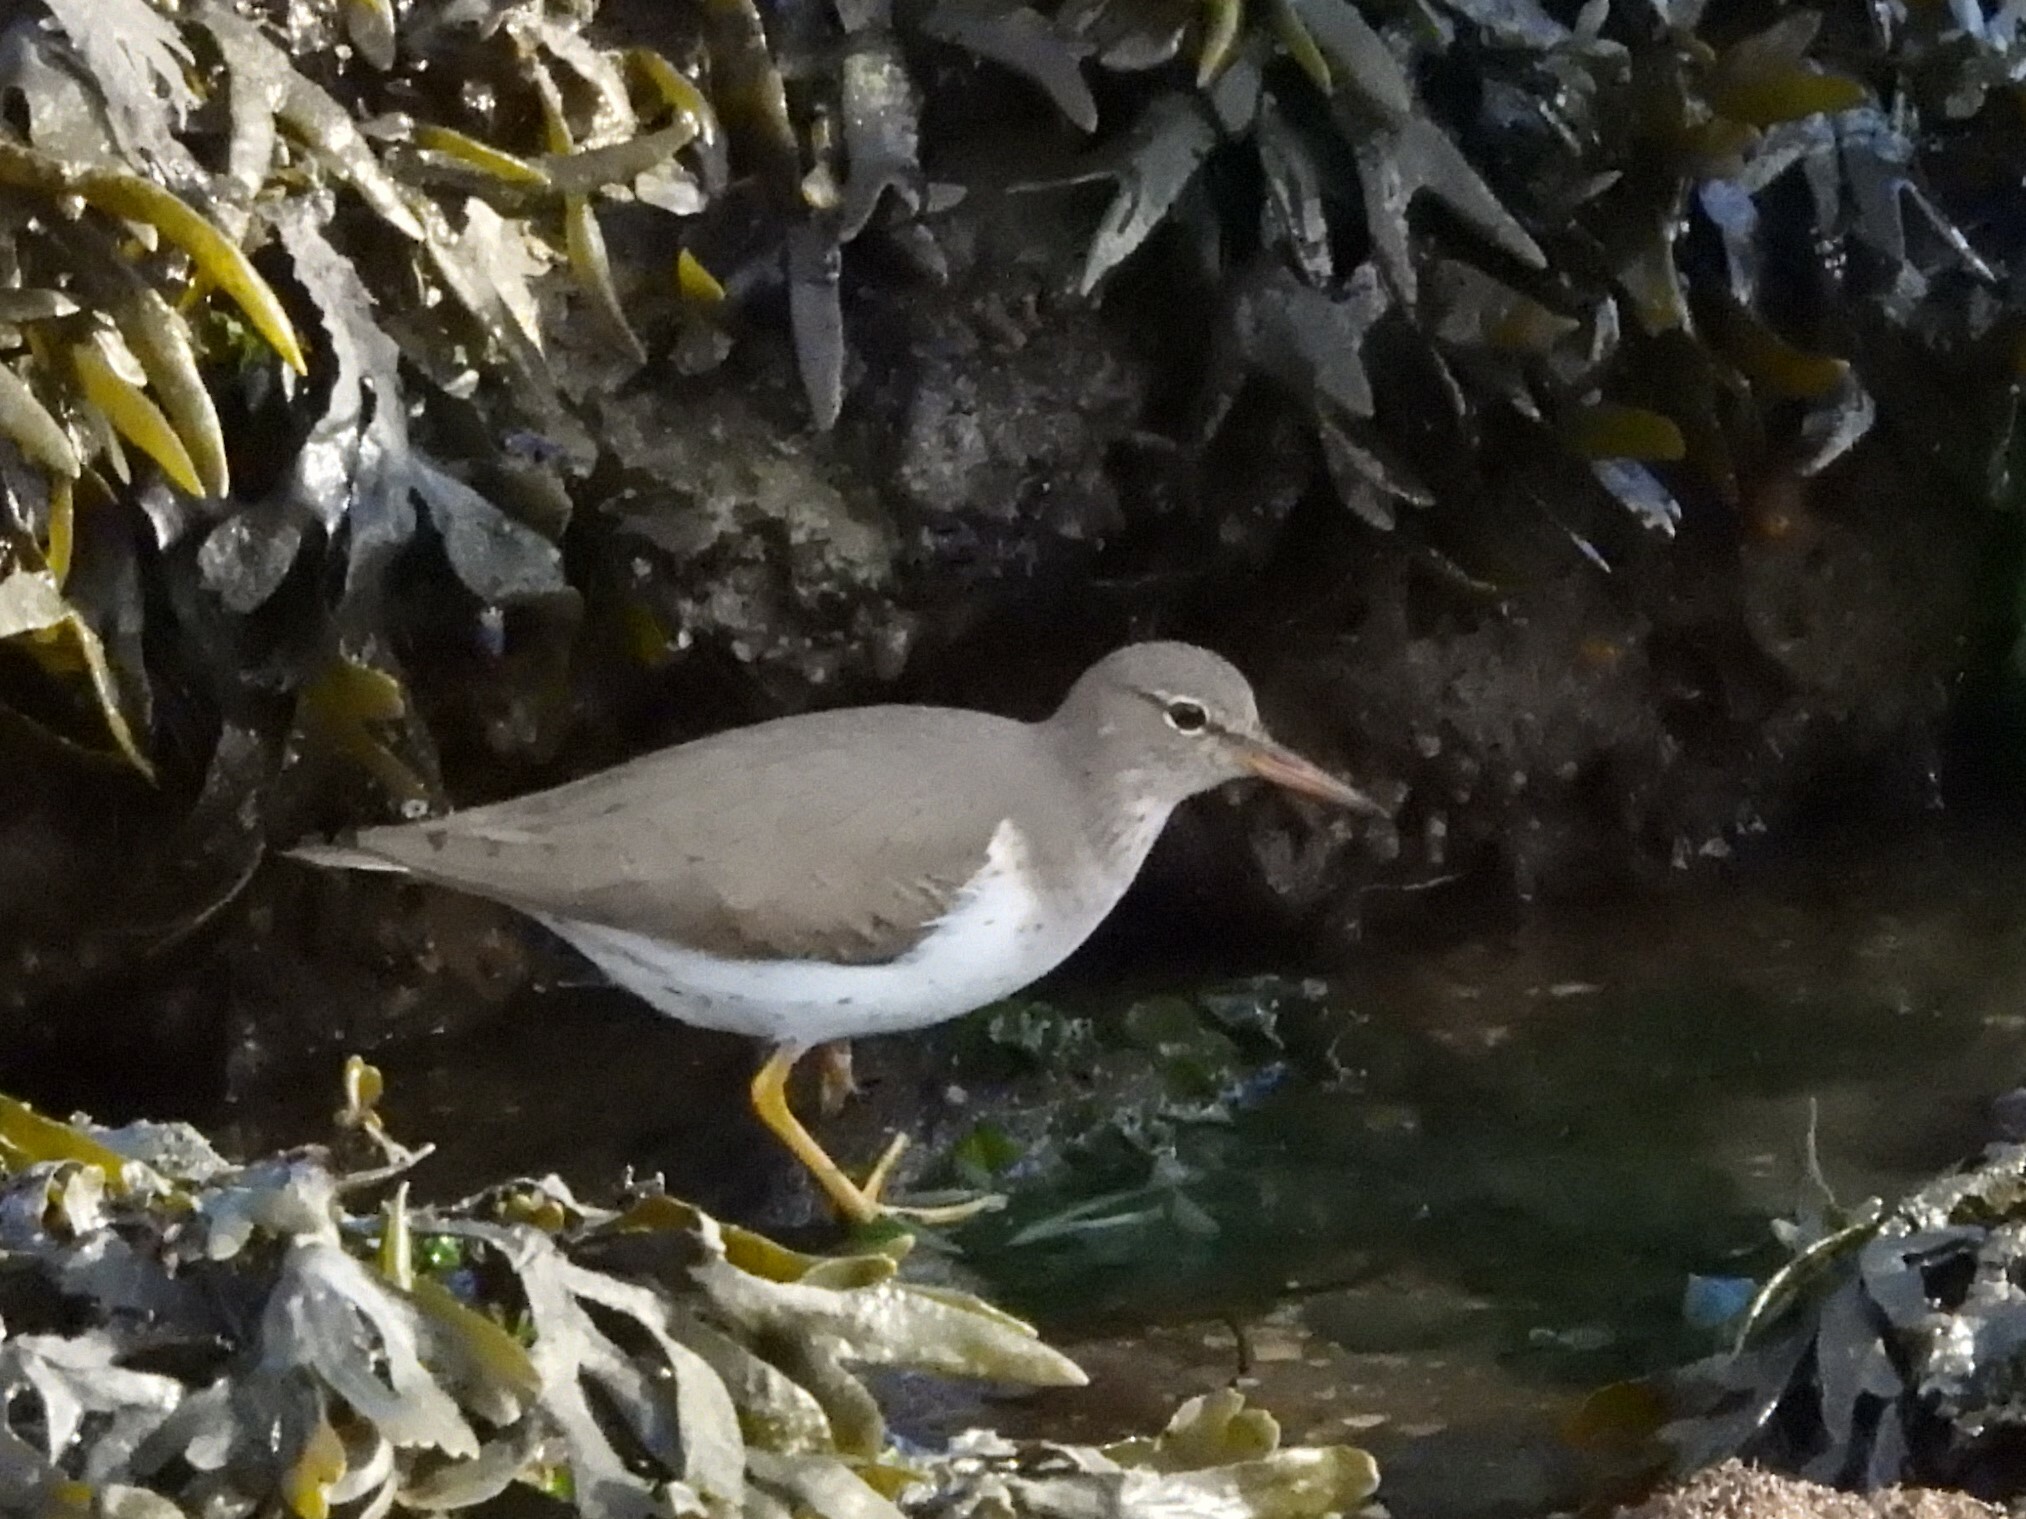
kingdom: Animalia
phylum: Chordata
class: Aves
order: Charadriiformes
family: Scolopacidae
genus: Actitis
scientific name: Actitis macularius
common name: Spotted sandpiper
